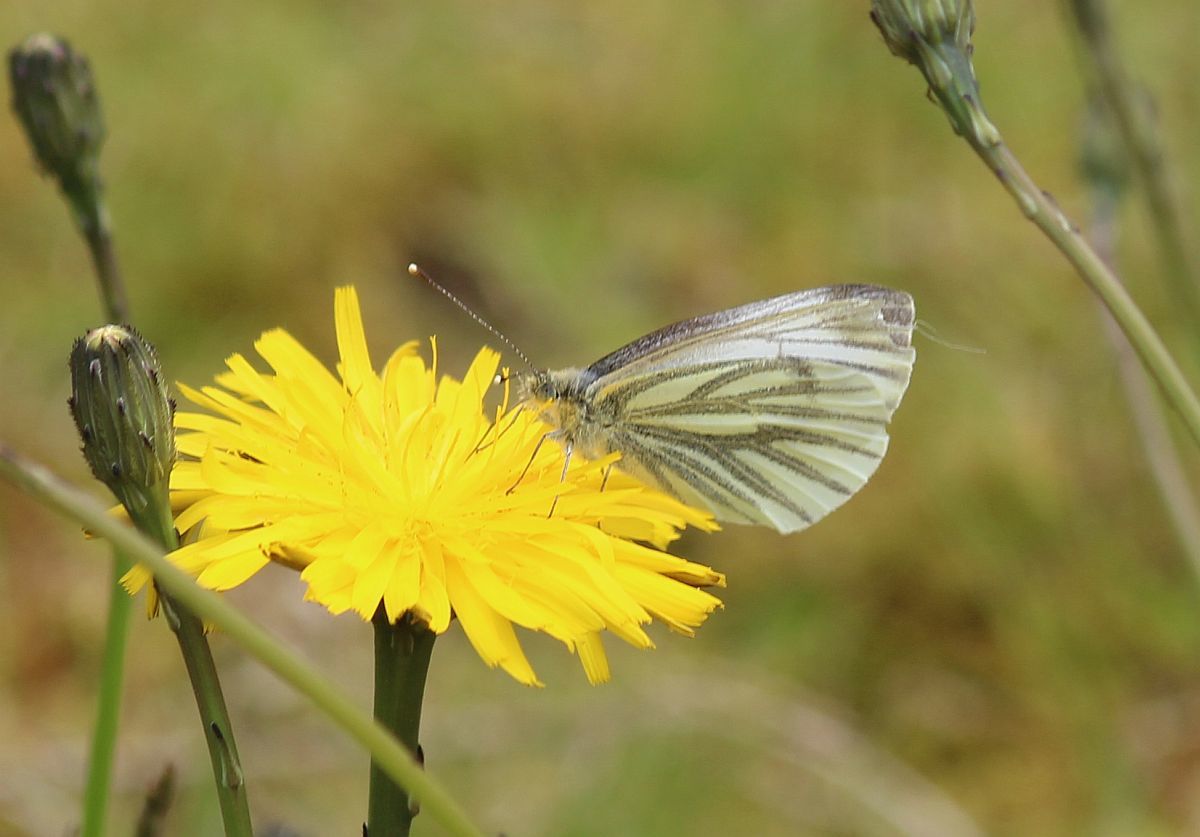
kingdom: Animalia
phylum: Arthropoda
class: Insecta
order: Lepidoptera
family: Pieridae
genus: Pieris
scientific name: Pieris napi
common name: Green-veined white
